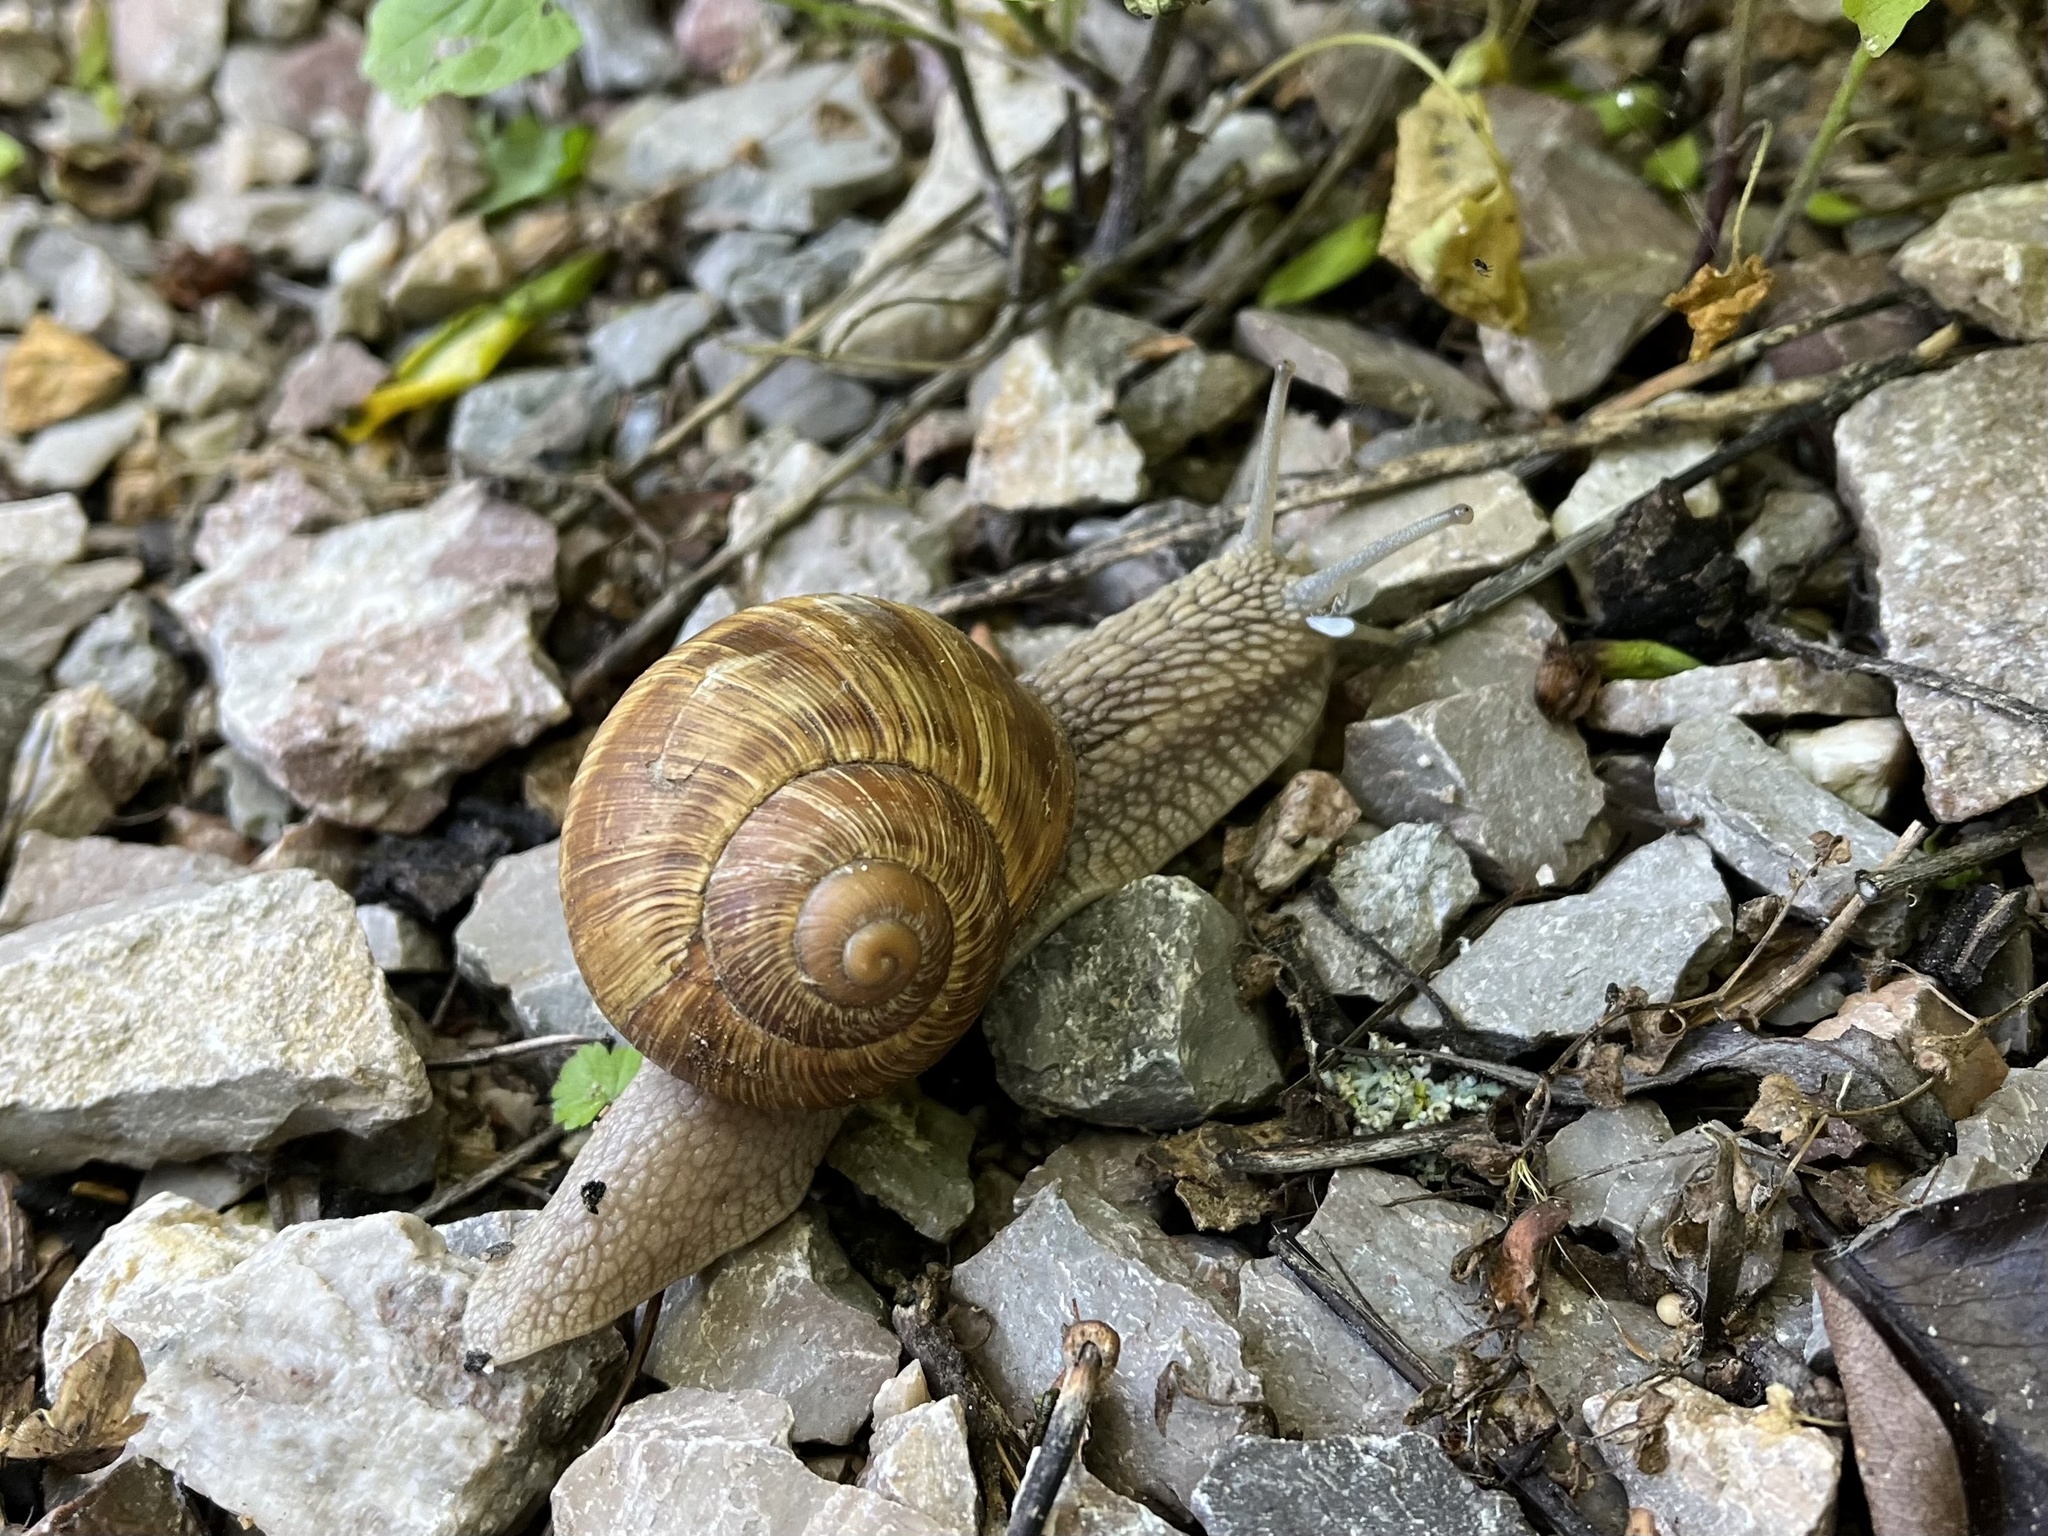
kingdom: Animalia
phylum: Mollusca
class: Gastropoda
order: Stylommatophora
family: Helicidae
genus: Helix
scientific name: Helix pomatia
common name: Roman snail
